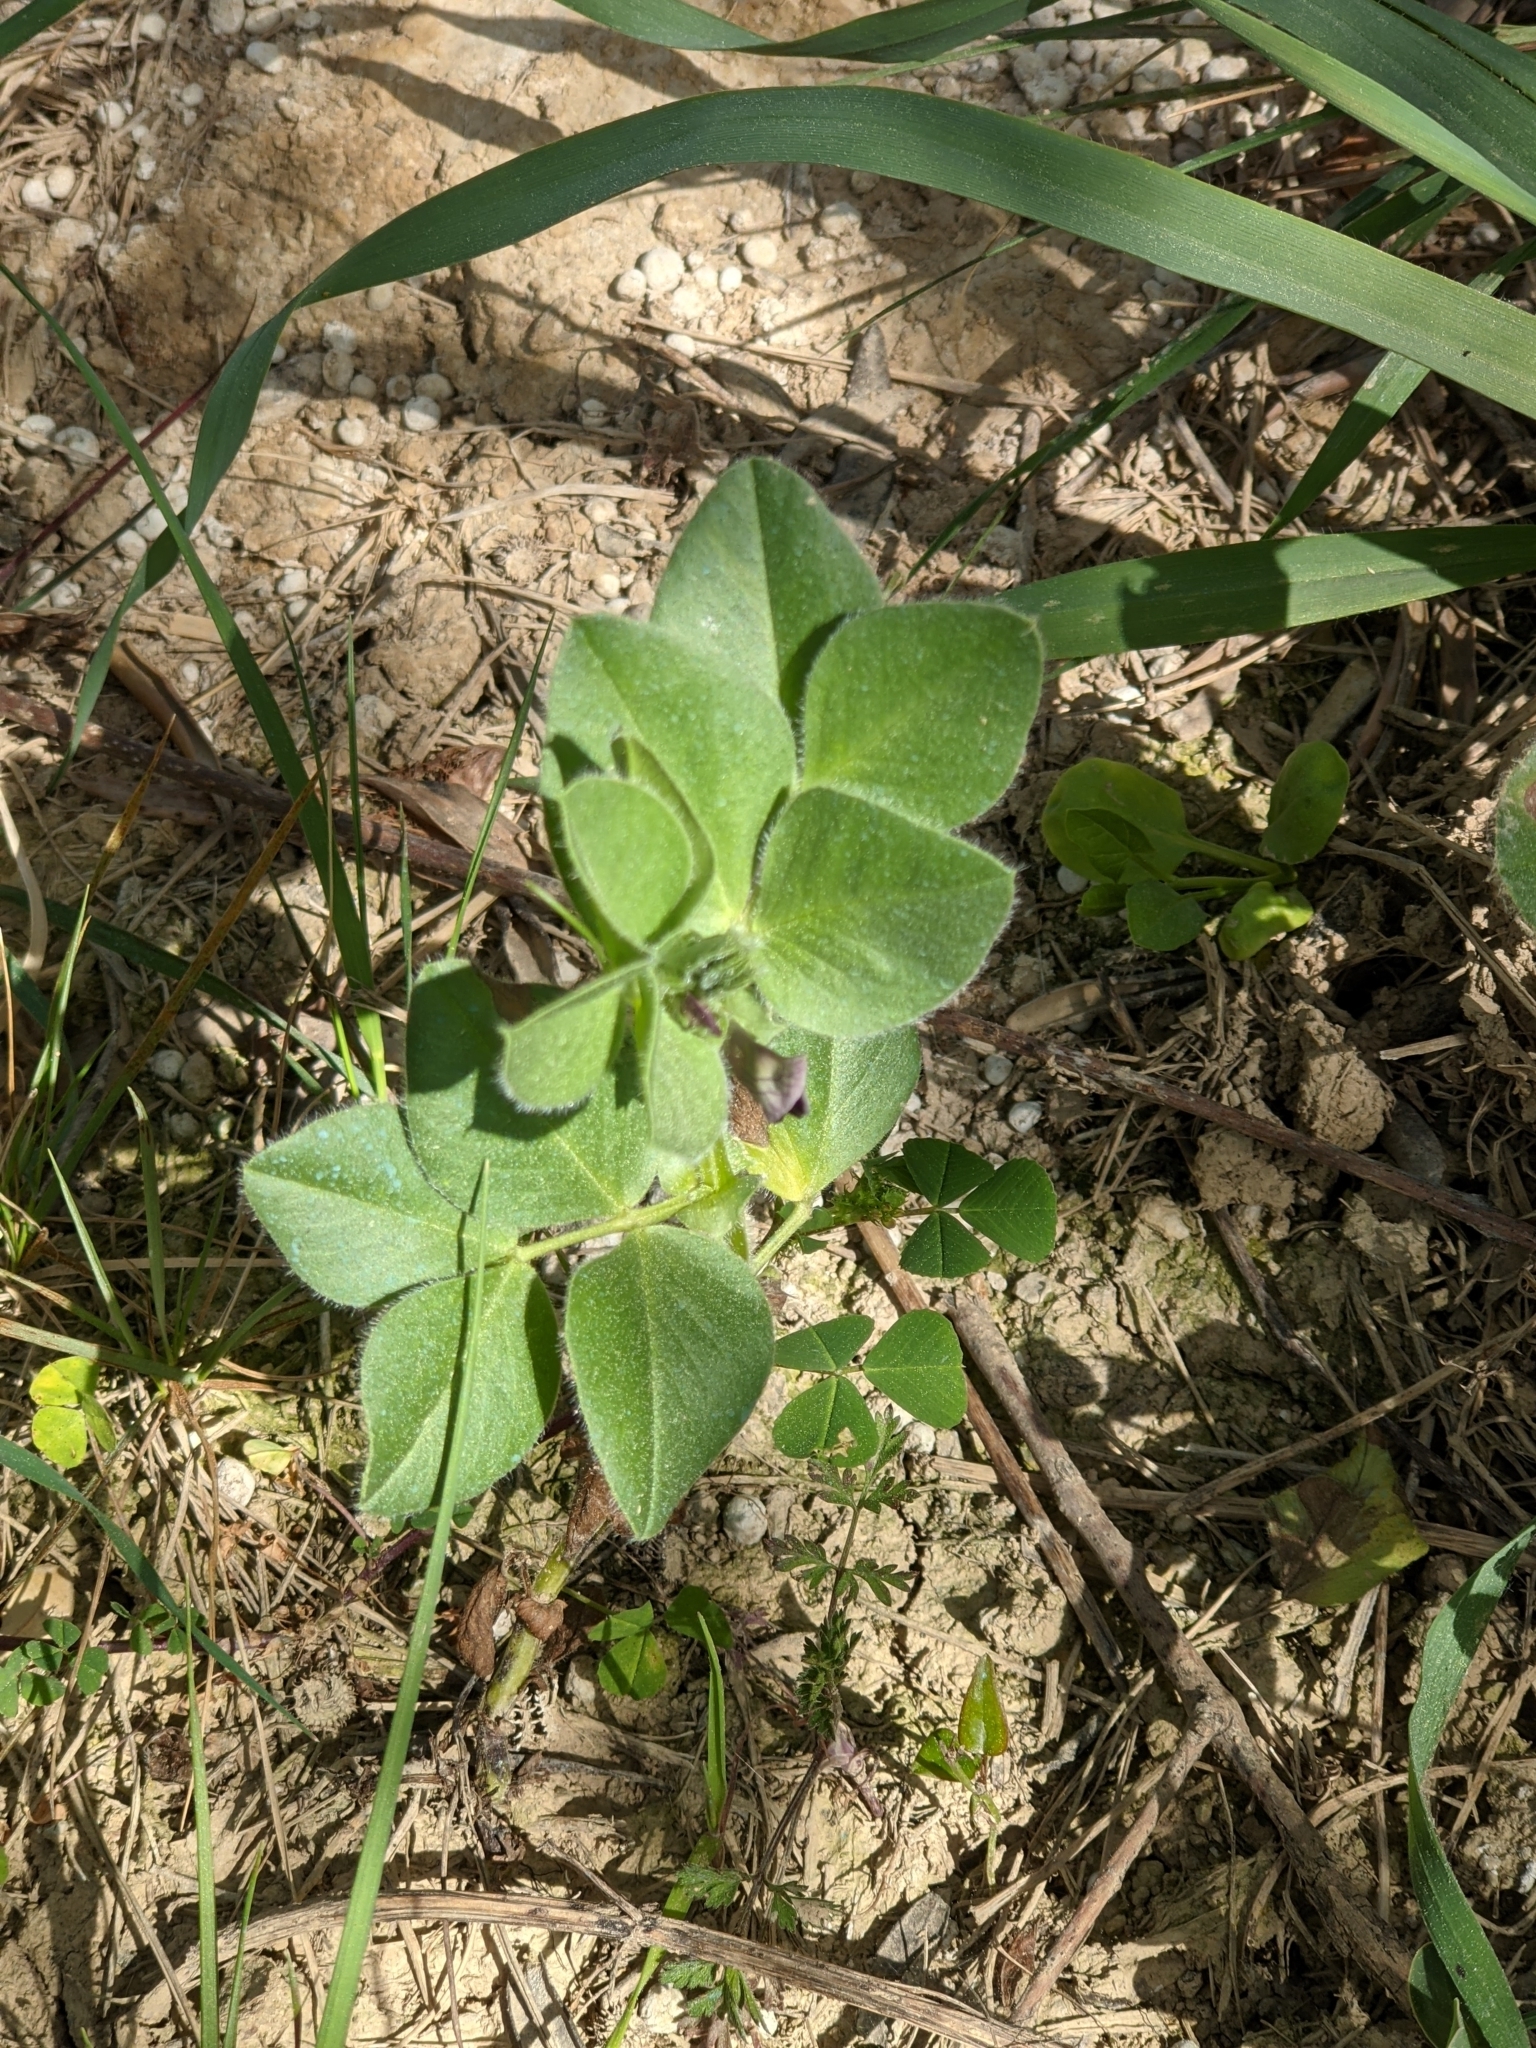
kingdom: Plantae
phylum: Tracheophyta
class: Magnoliopsida
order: Fabales
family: Fabaceae
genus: Vicia
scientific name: Vicia johannis
